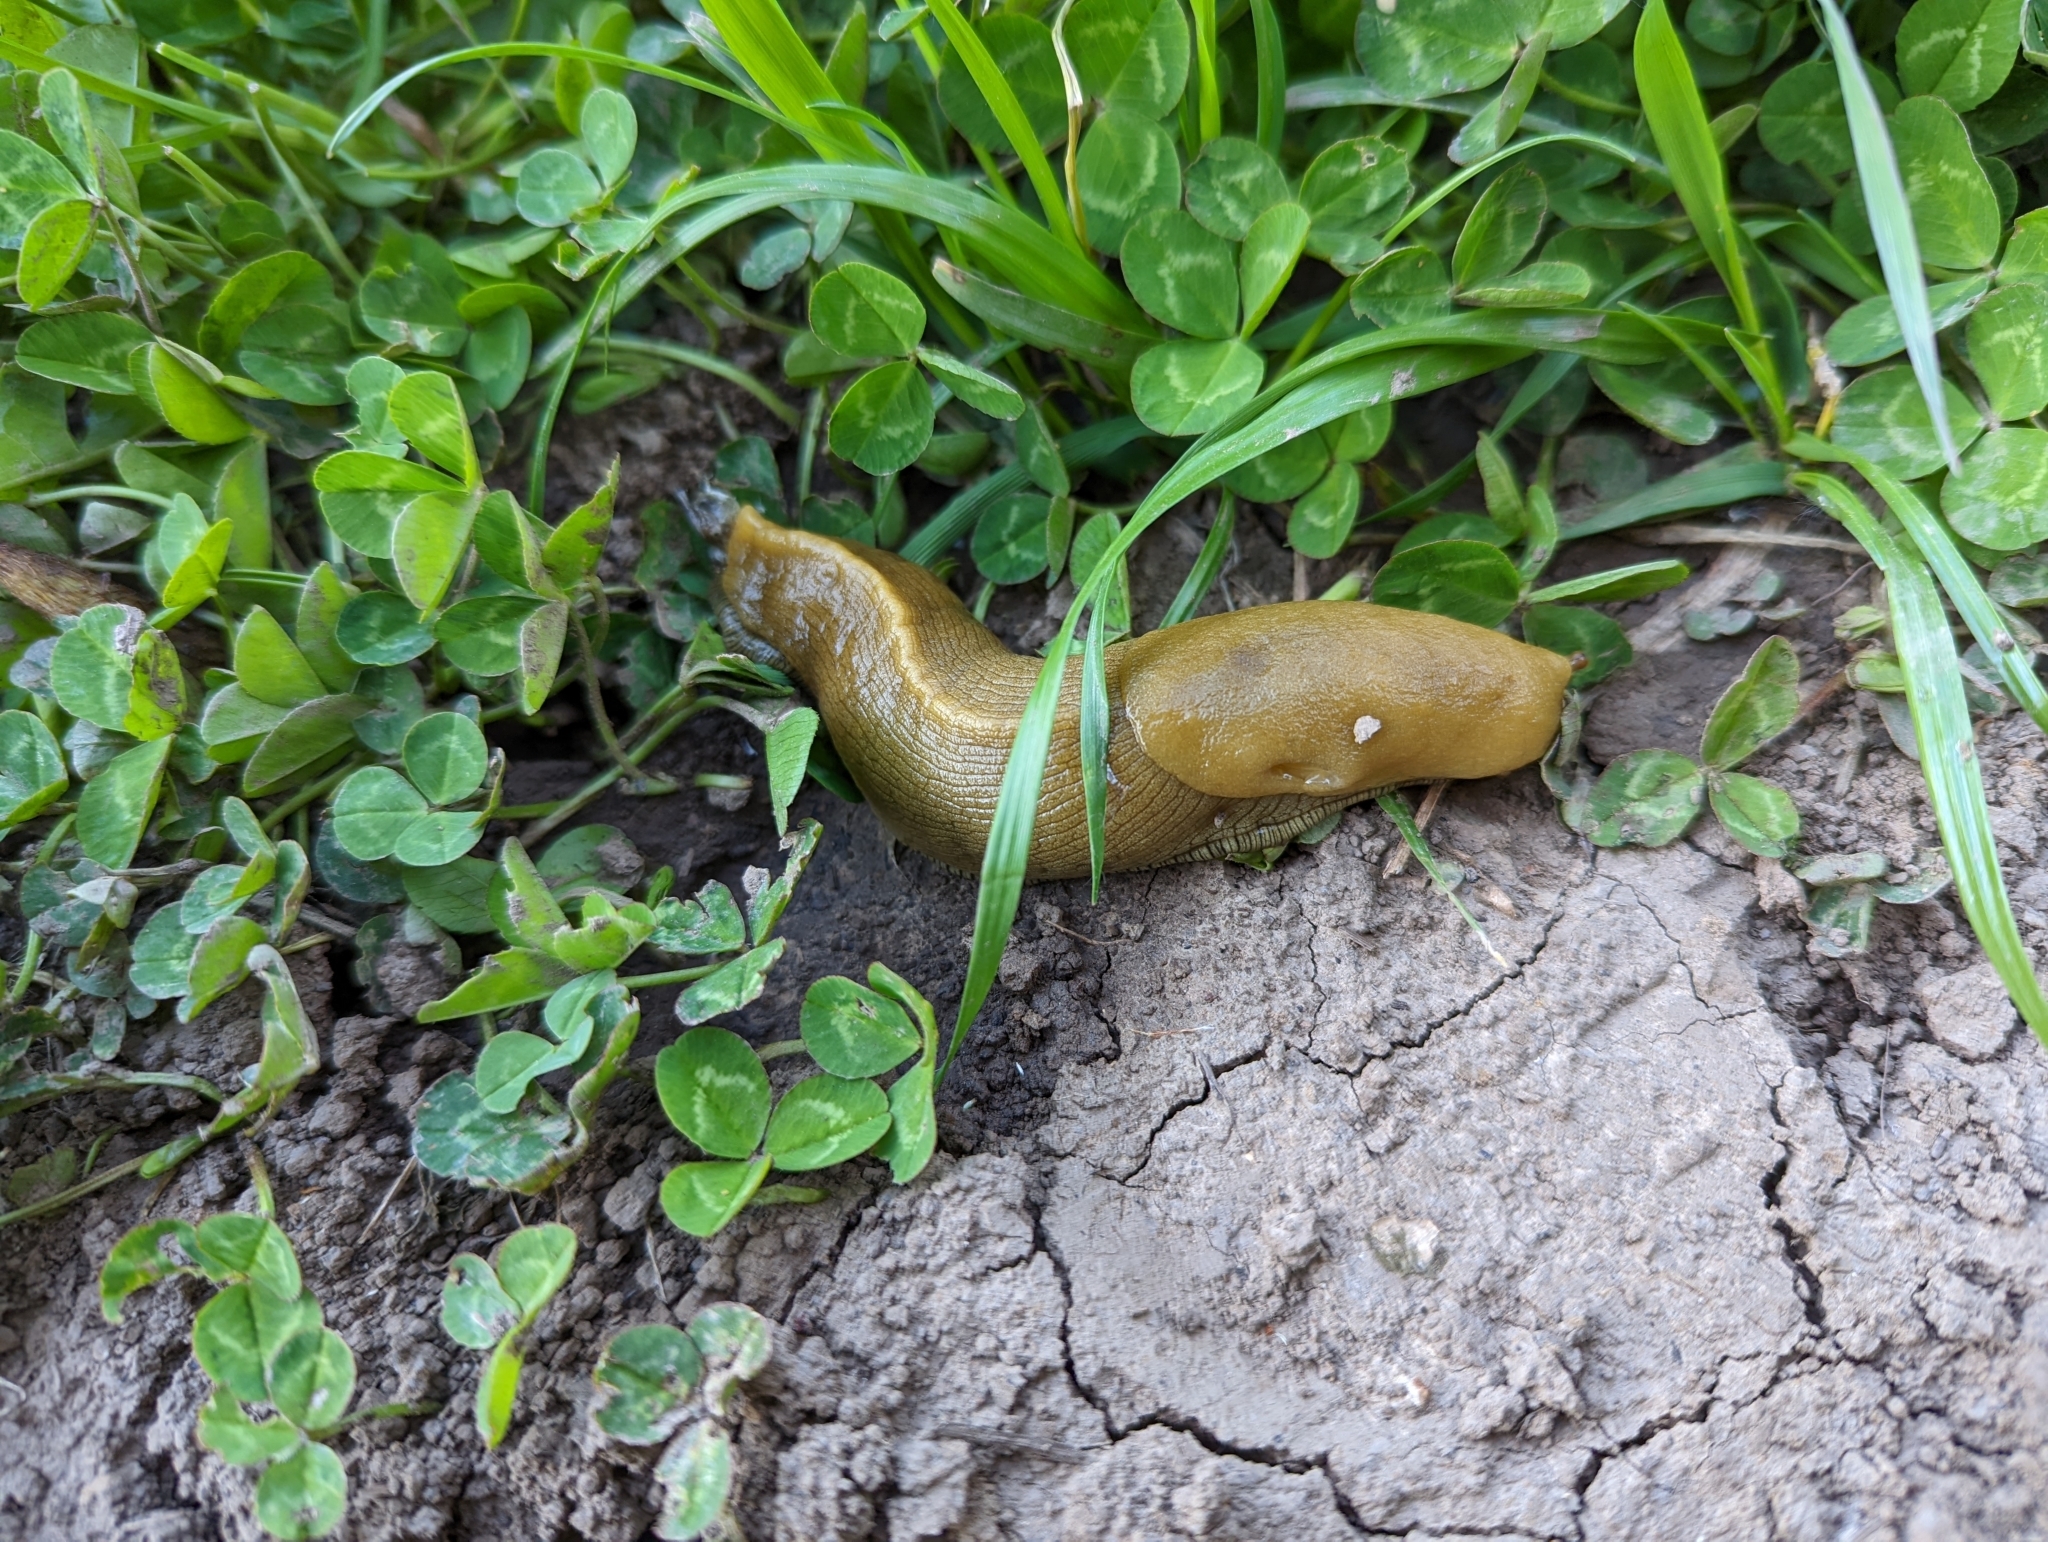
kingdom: Animalia
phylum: Mollusca
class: Gastropoda
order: Stylommatophora
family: Ariolimacidae
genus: Ariolimax
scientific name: Ariolimax buttoni
